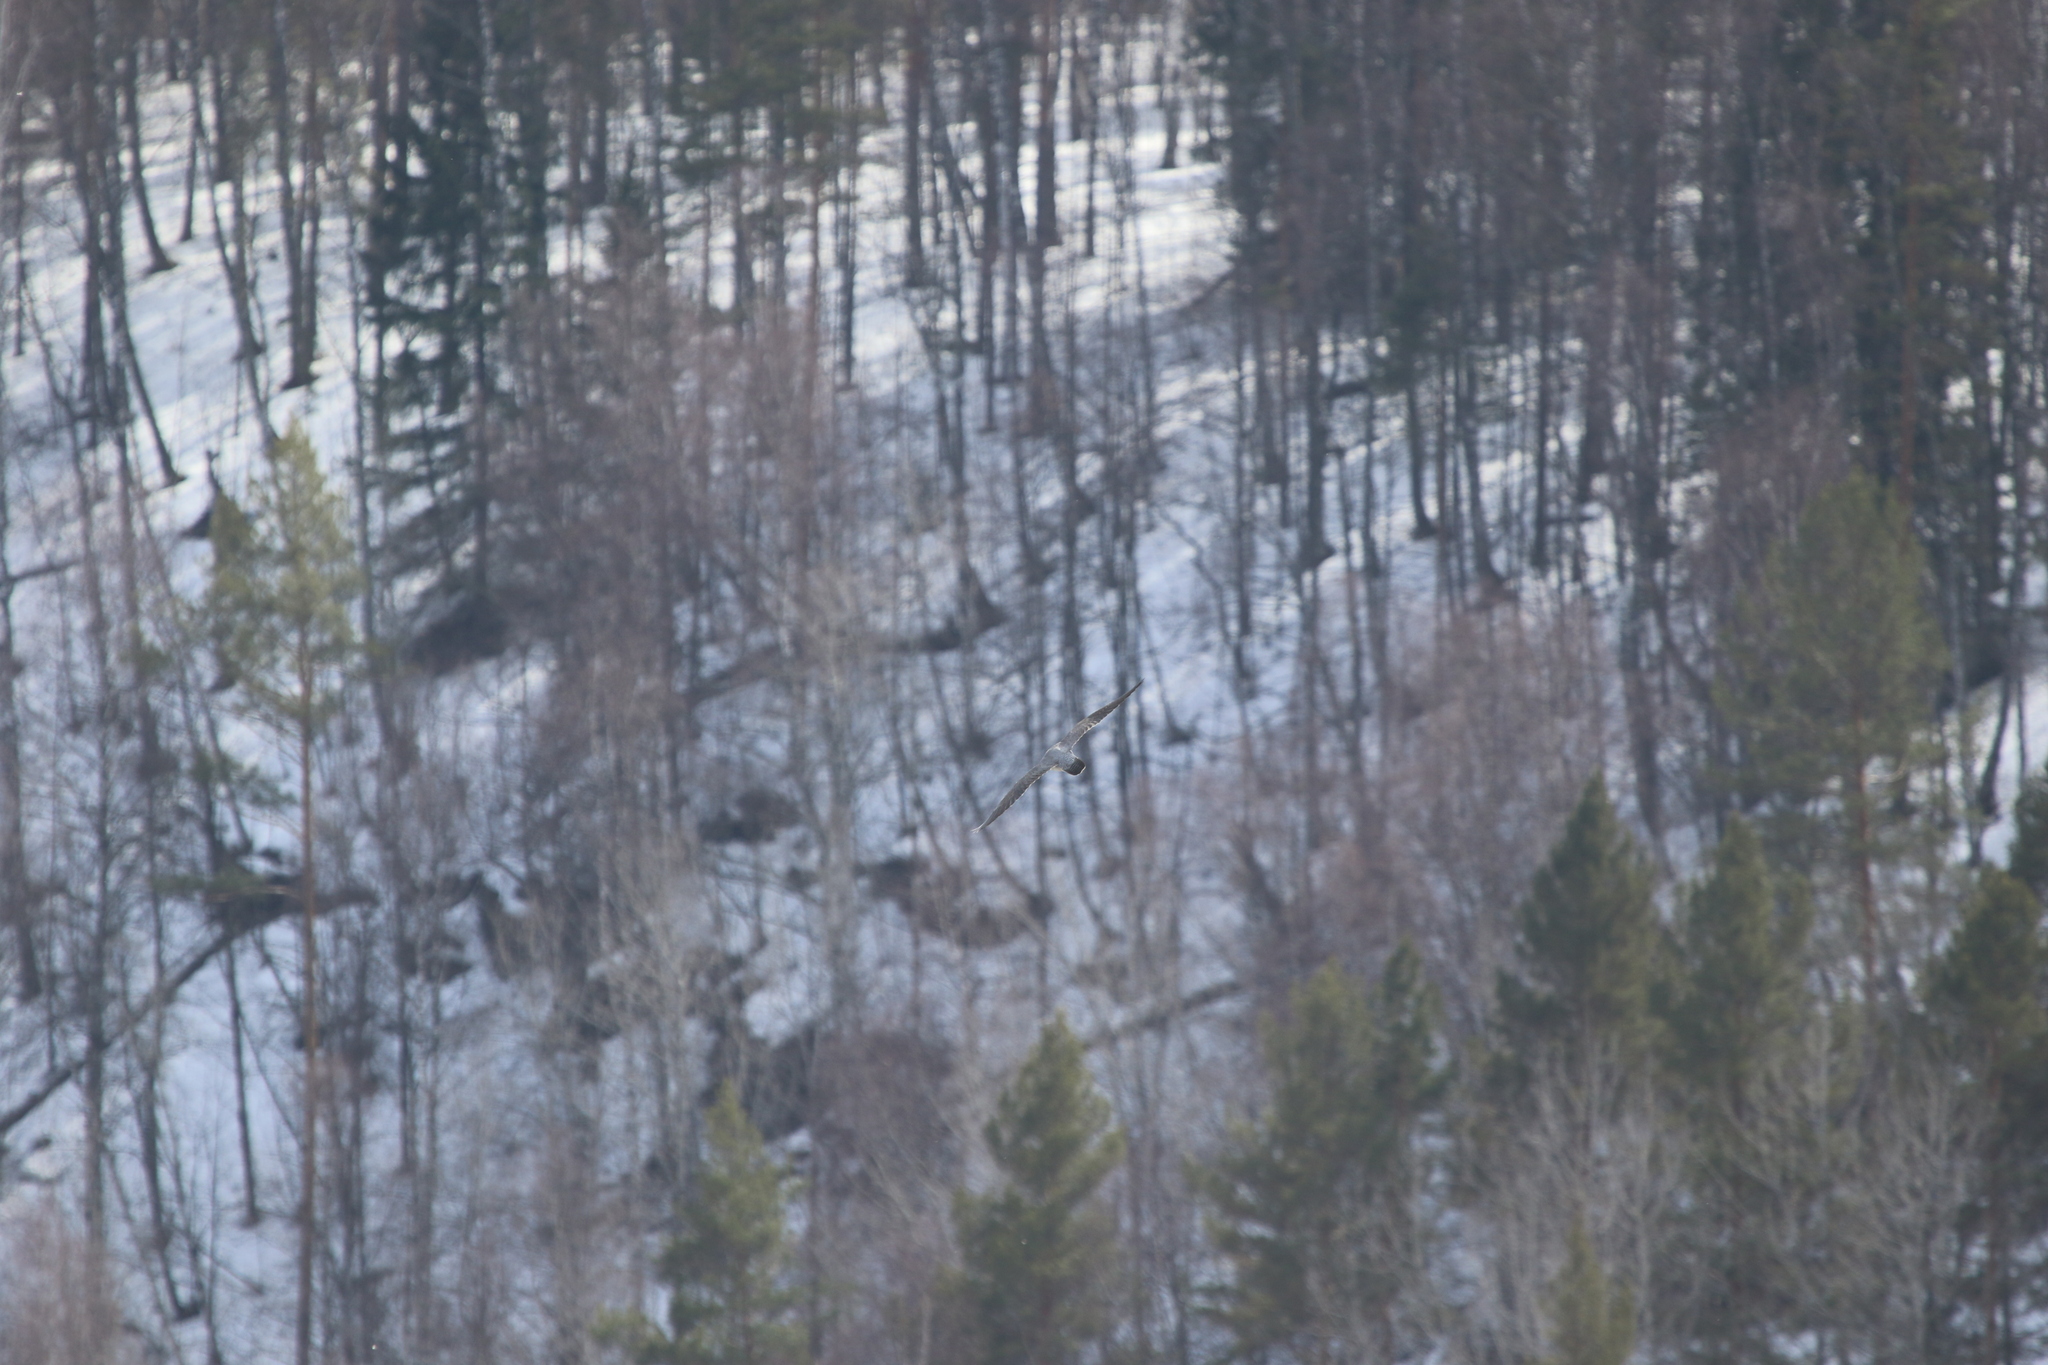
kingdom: Animalia
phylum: Chordata
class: Aves
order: Falconiformes
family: Falconidae
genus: Falco
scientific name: Falco peregrinus
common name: Peregrine falcon
